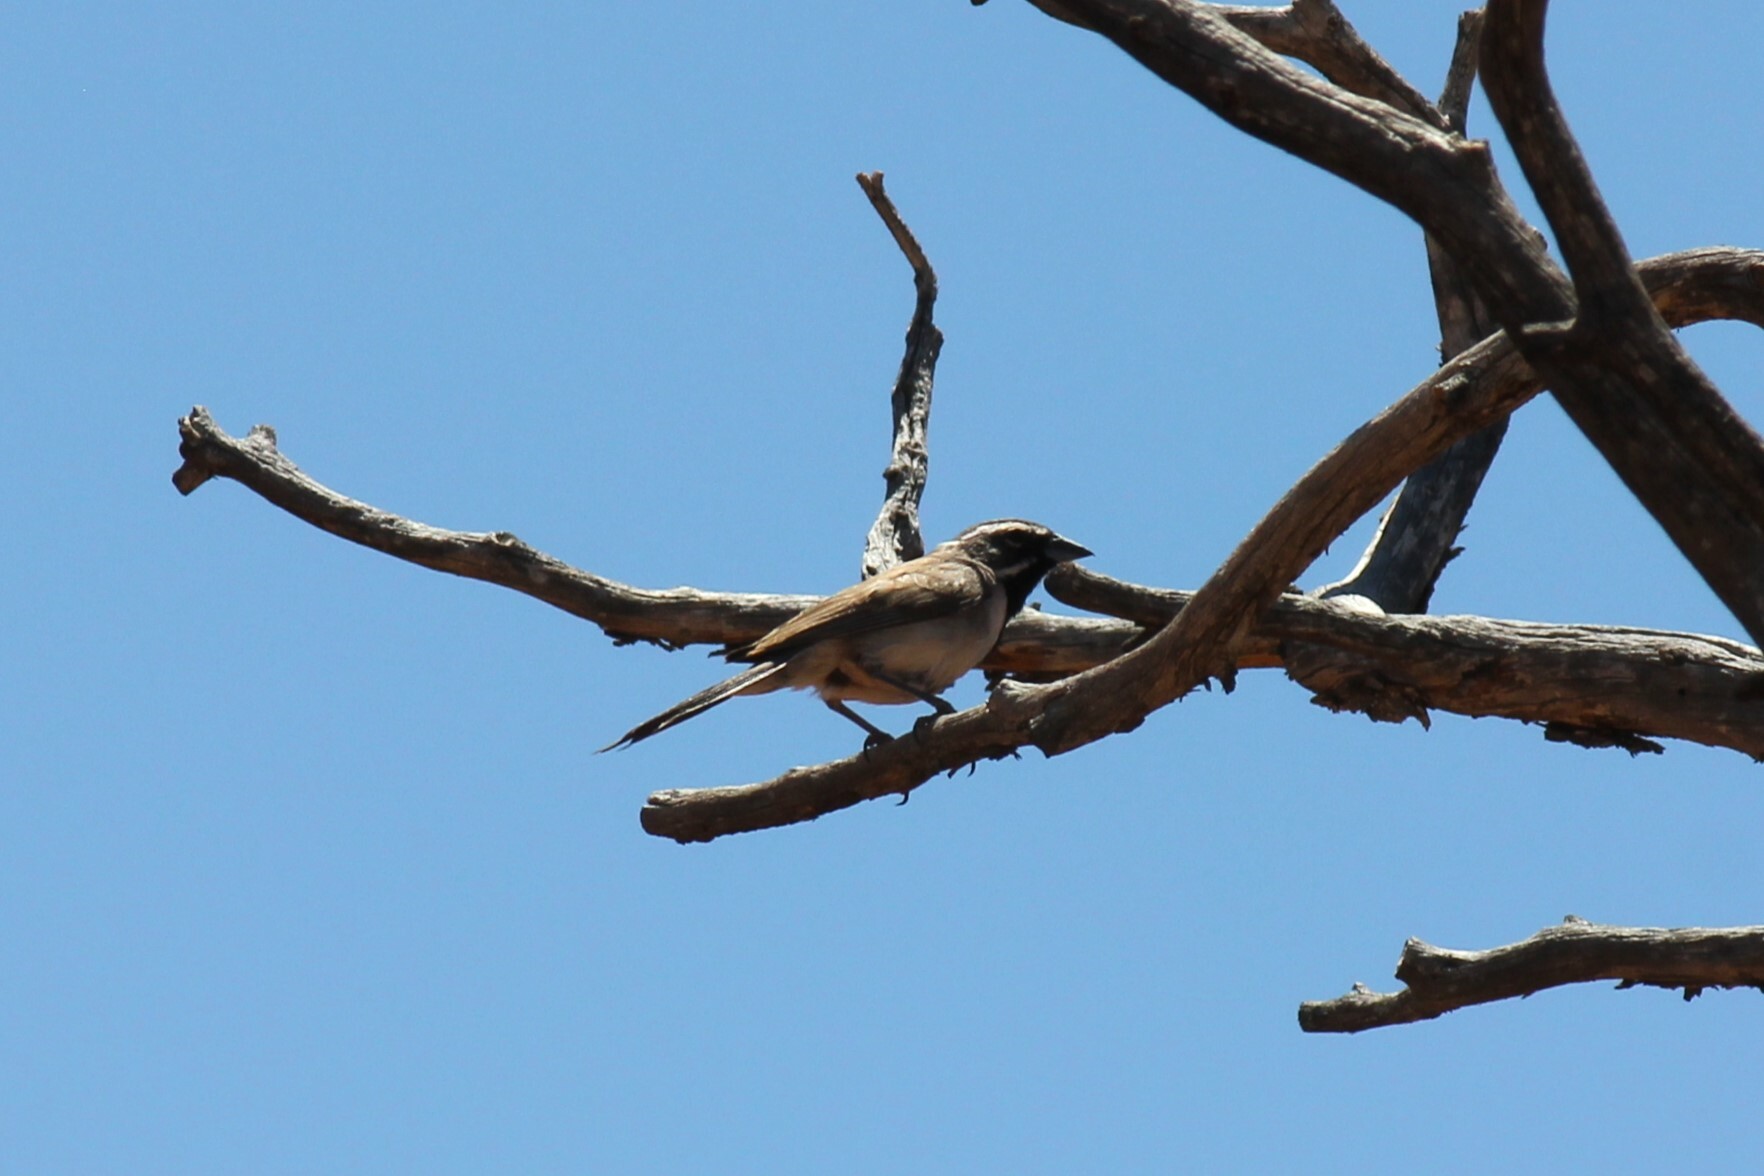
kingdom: Animalia
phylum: Chordata
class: Aves
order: Passeriformes
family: Passerellidae
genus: Amphispiza
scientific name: Amphispiza bilineata
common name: Black-throated sparrow
